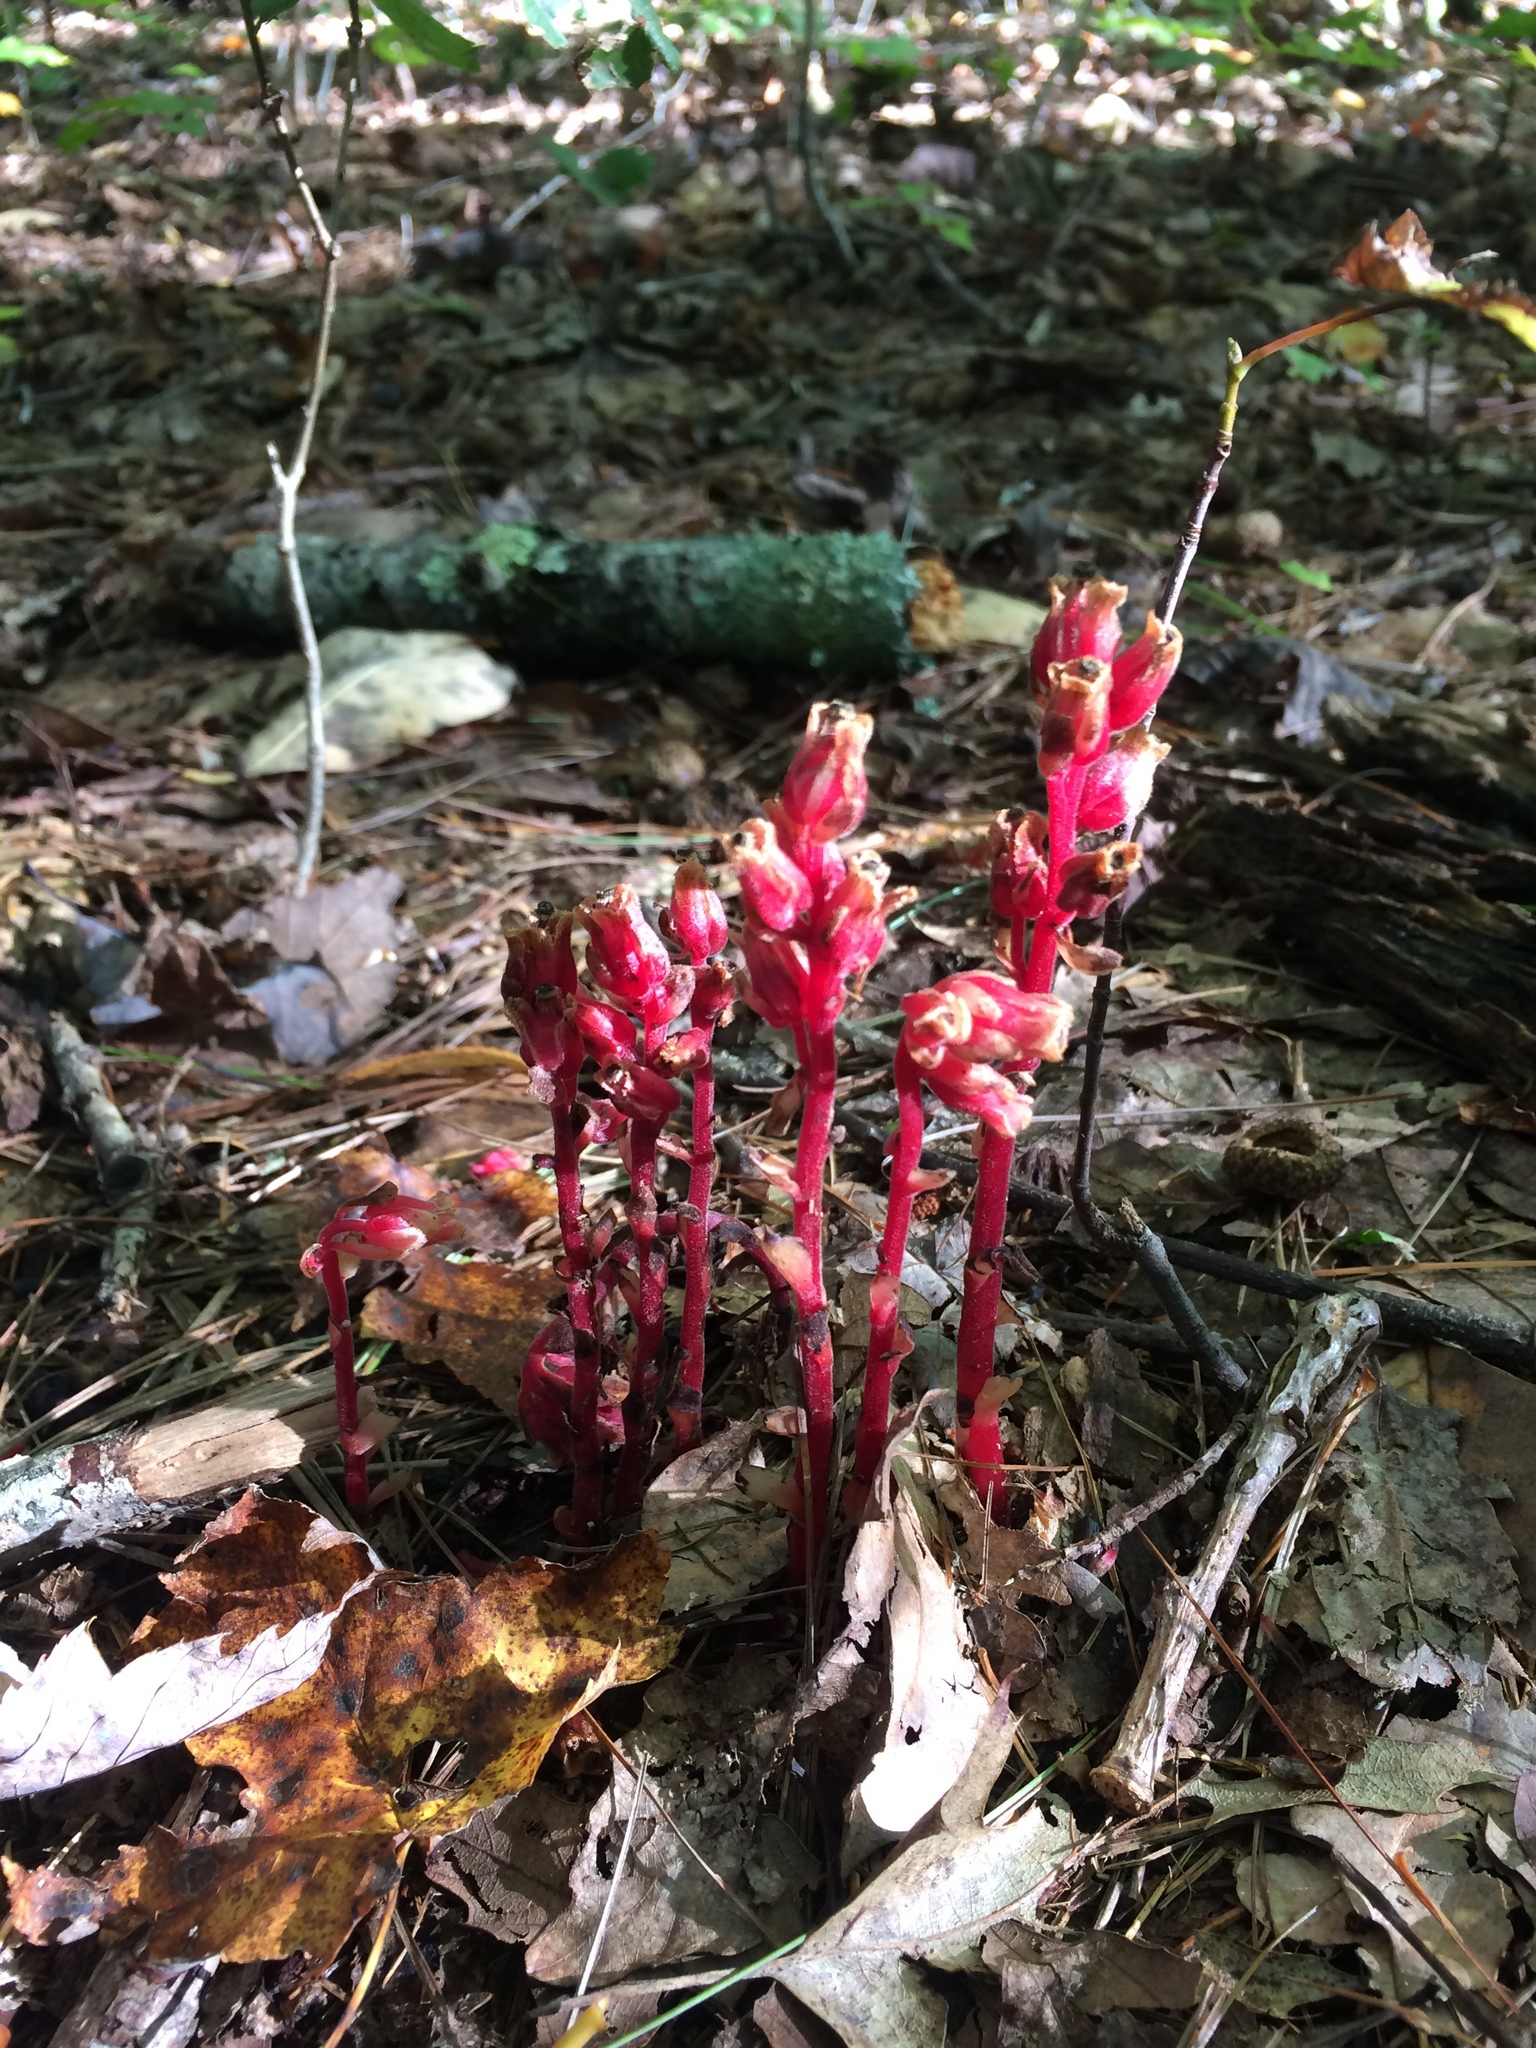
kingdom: Plantae
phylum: Tracheophyta
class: Magnoliopsida
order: Ericales
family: Ericaceae
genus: Hypopitys
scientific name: Hypopitys monotropa
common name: Yellow bird's-nest
